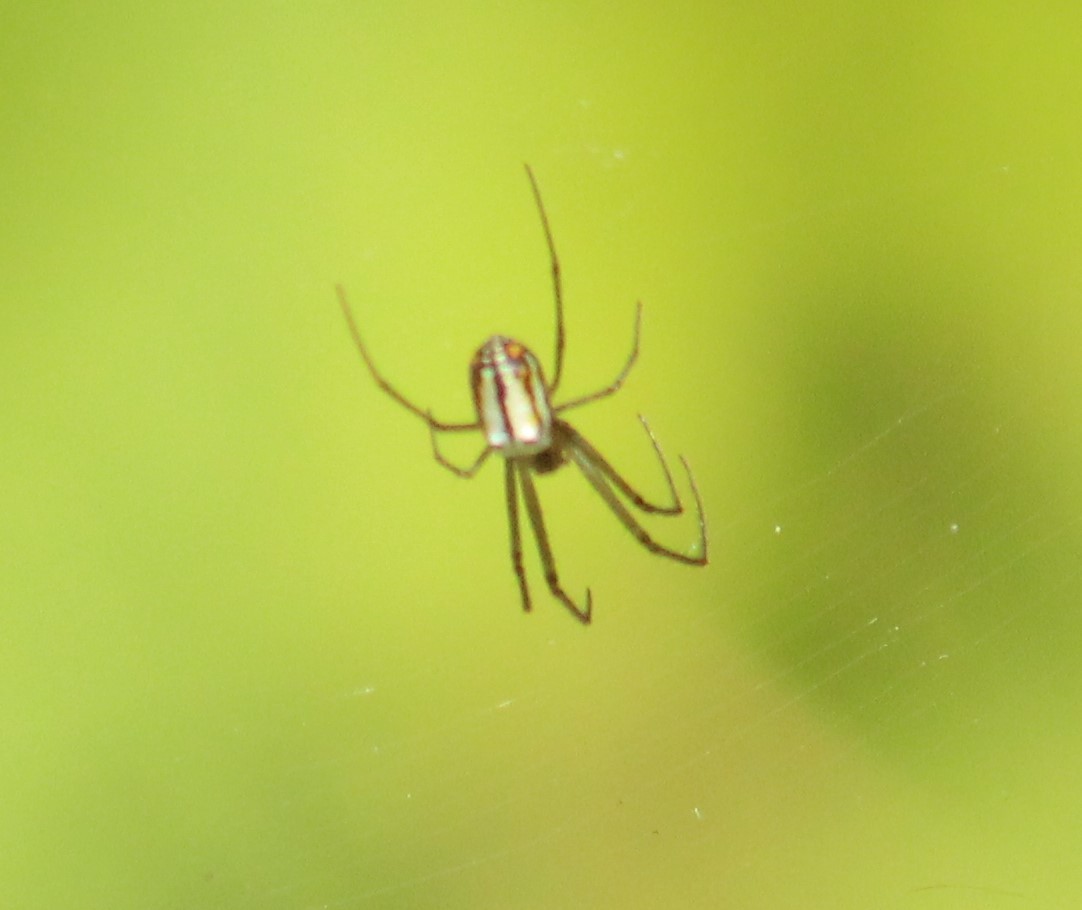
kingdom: Animalia
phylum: Arthropoda
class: Arachnida
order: Araneae
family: Tetragnathidae
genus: Leucauge
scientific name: Leucauge regnyi
